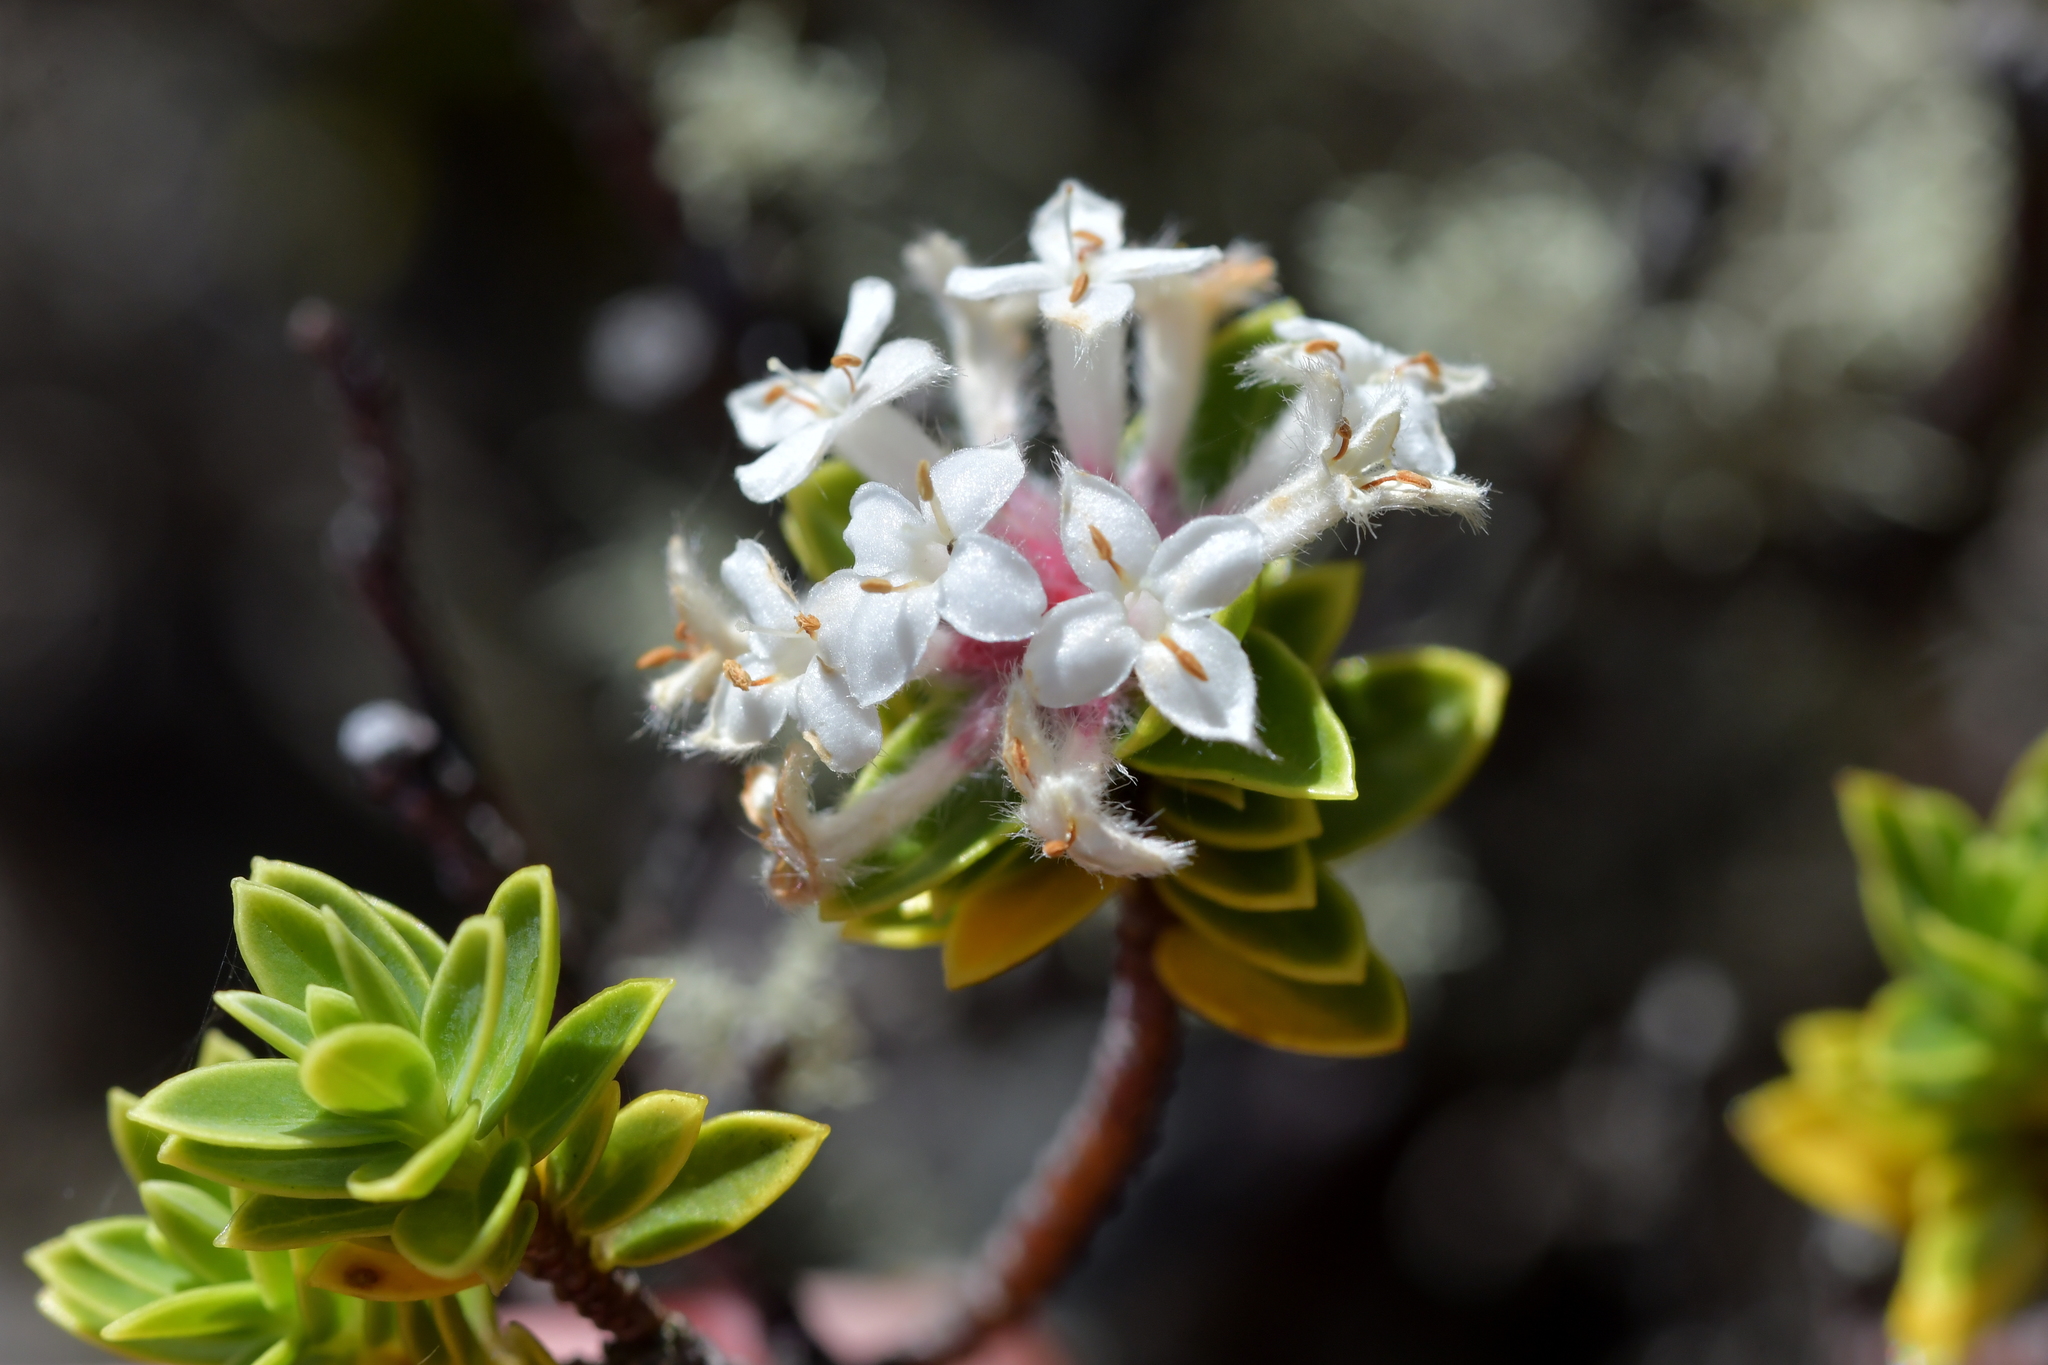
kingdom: Plantae
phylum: Tracheophyta
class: Magnoliopsida
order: Malvales
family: Thymelaeaceae
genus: Pimelea
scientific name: Pimelea gnidia
